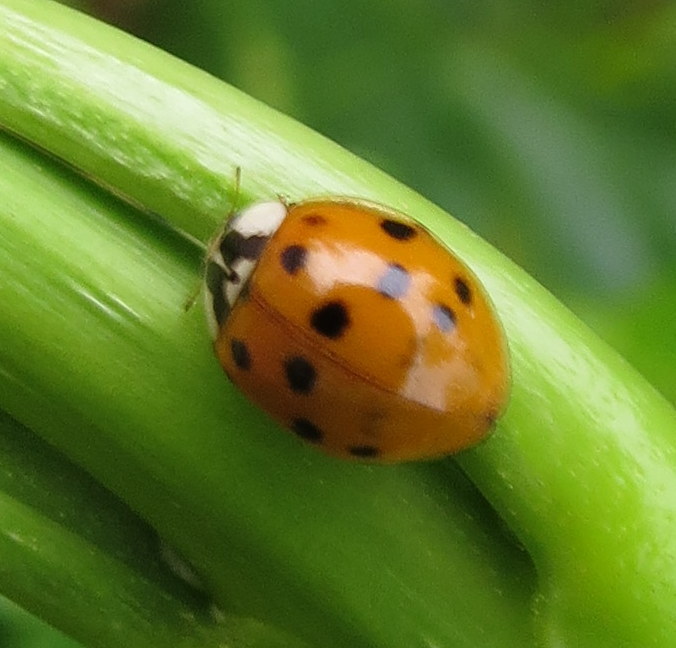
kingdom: Animalia
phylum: Arthropoda
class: Insecta
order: Coleoptera
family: Coccinellidae
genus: Harmonia
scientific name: Harmonia axyridis
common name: Harlequin ladybird
